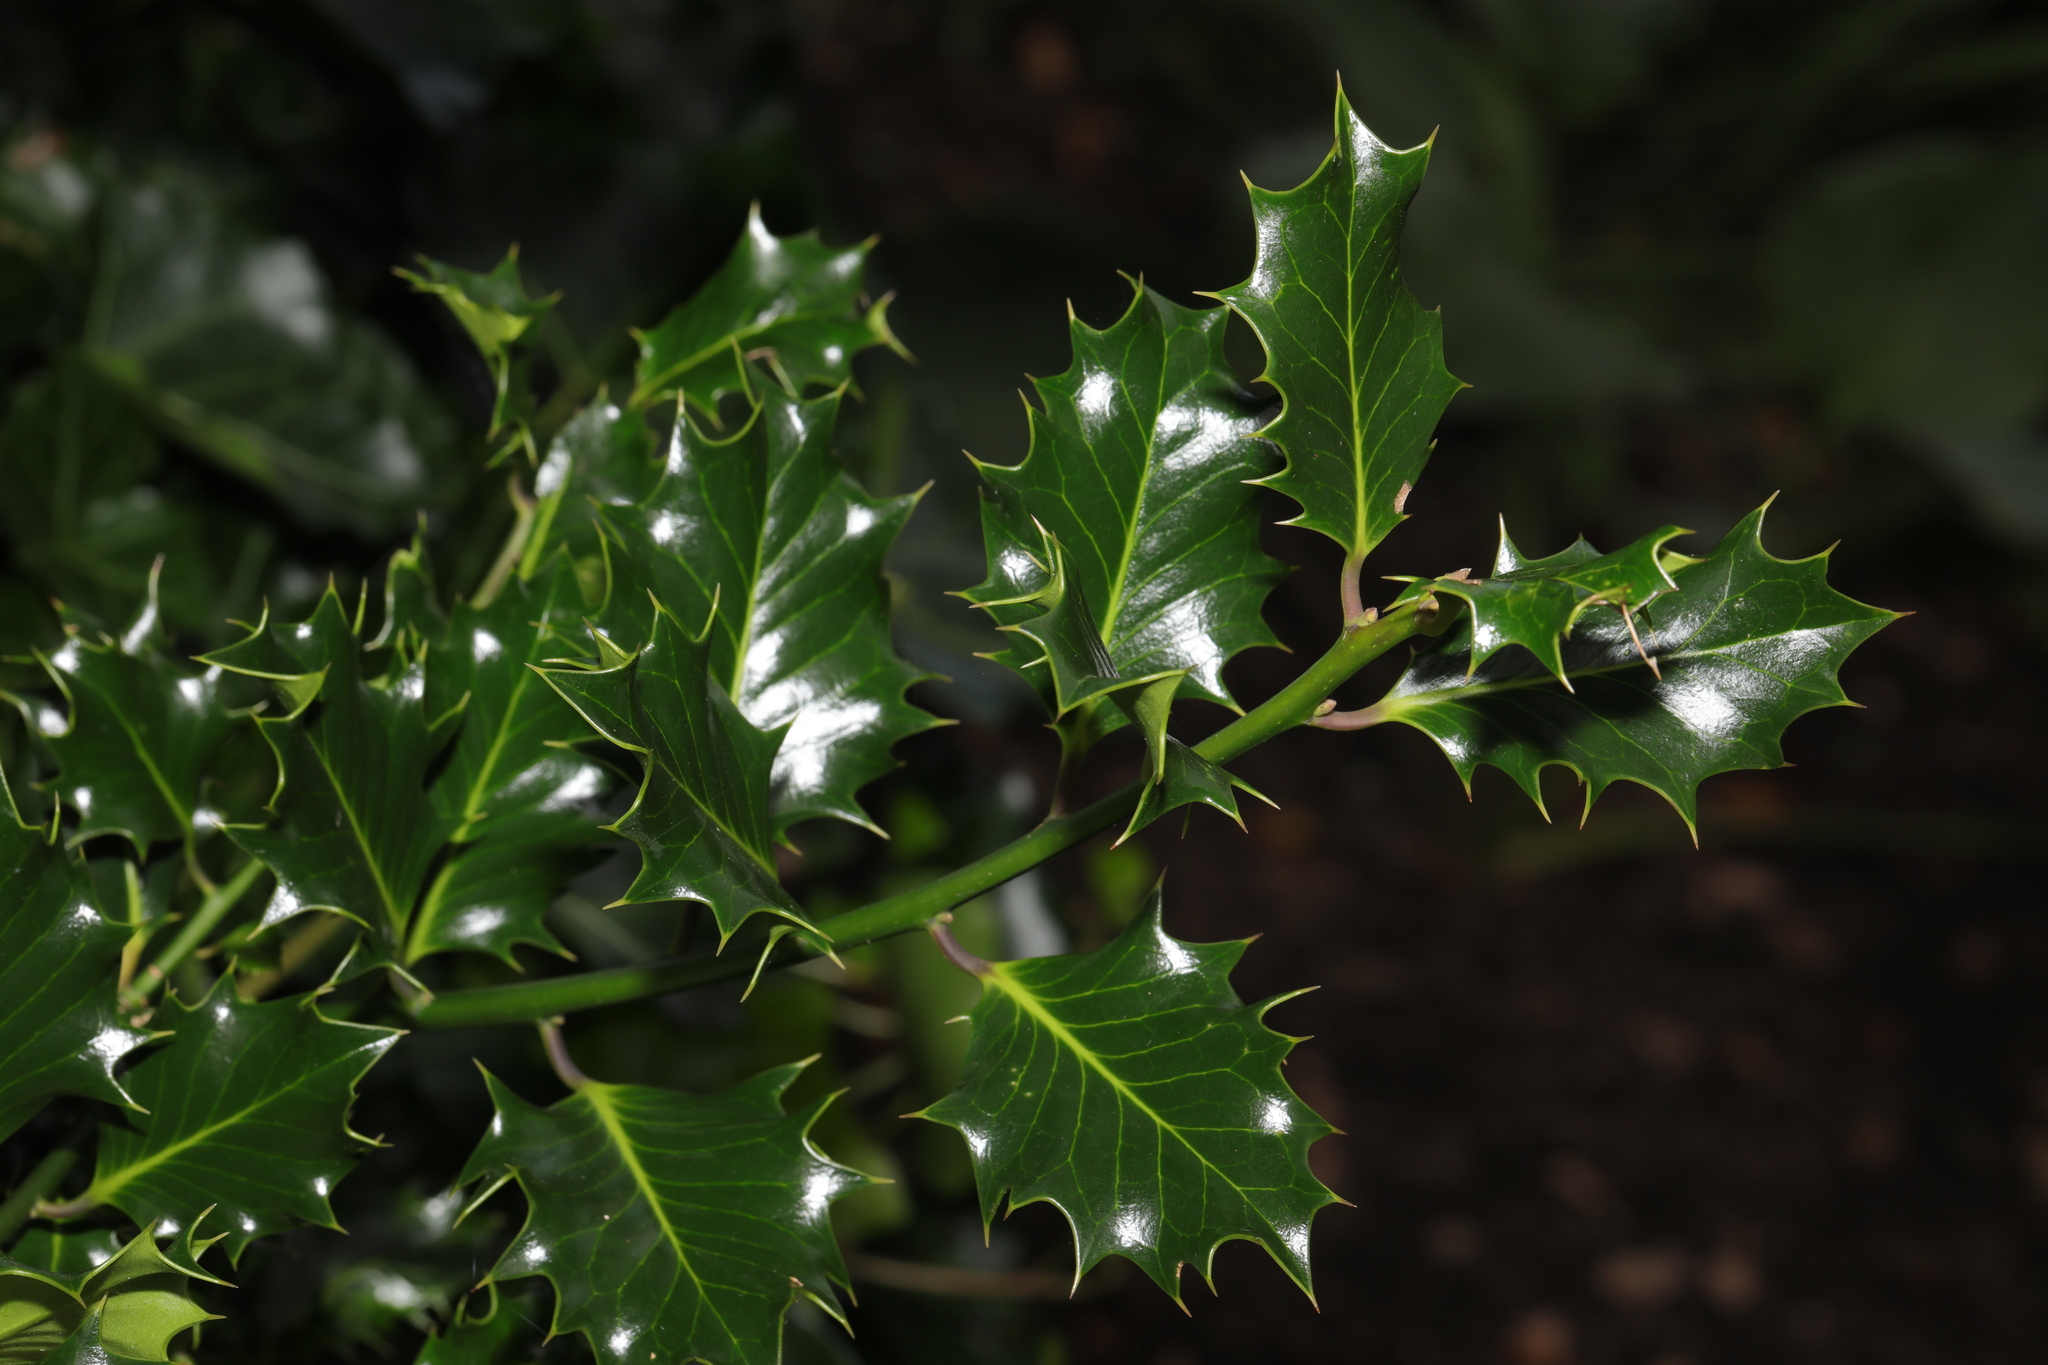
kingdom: Plantae
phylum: Tracheophyta
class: Magnoliopsida
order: Aquifoliales
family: Aquifoliaceae
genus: Ilex
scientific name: Ilex aquifolium
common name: English holly
